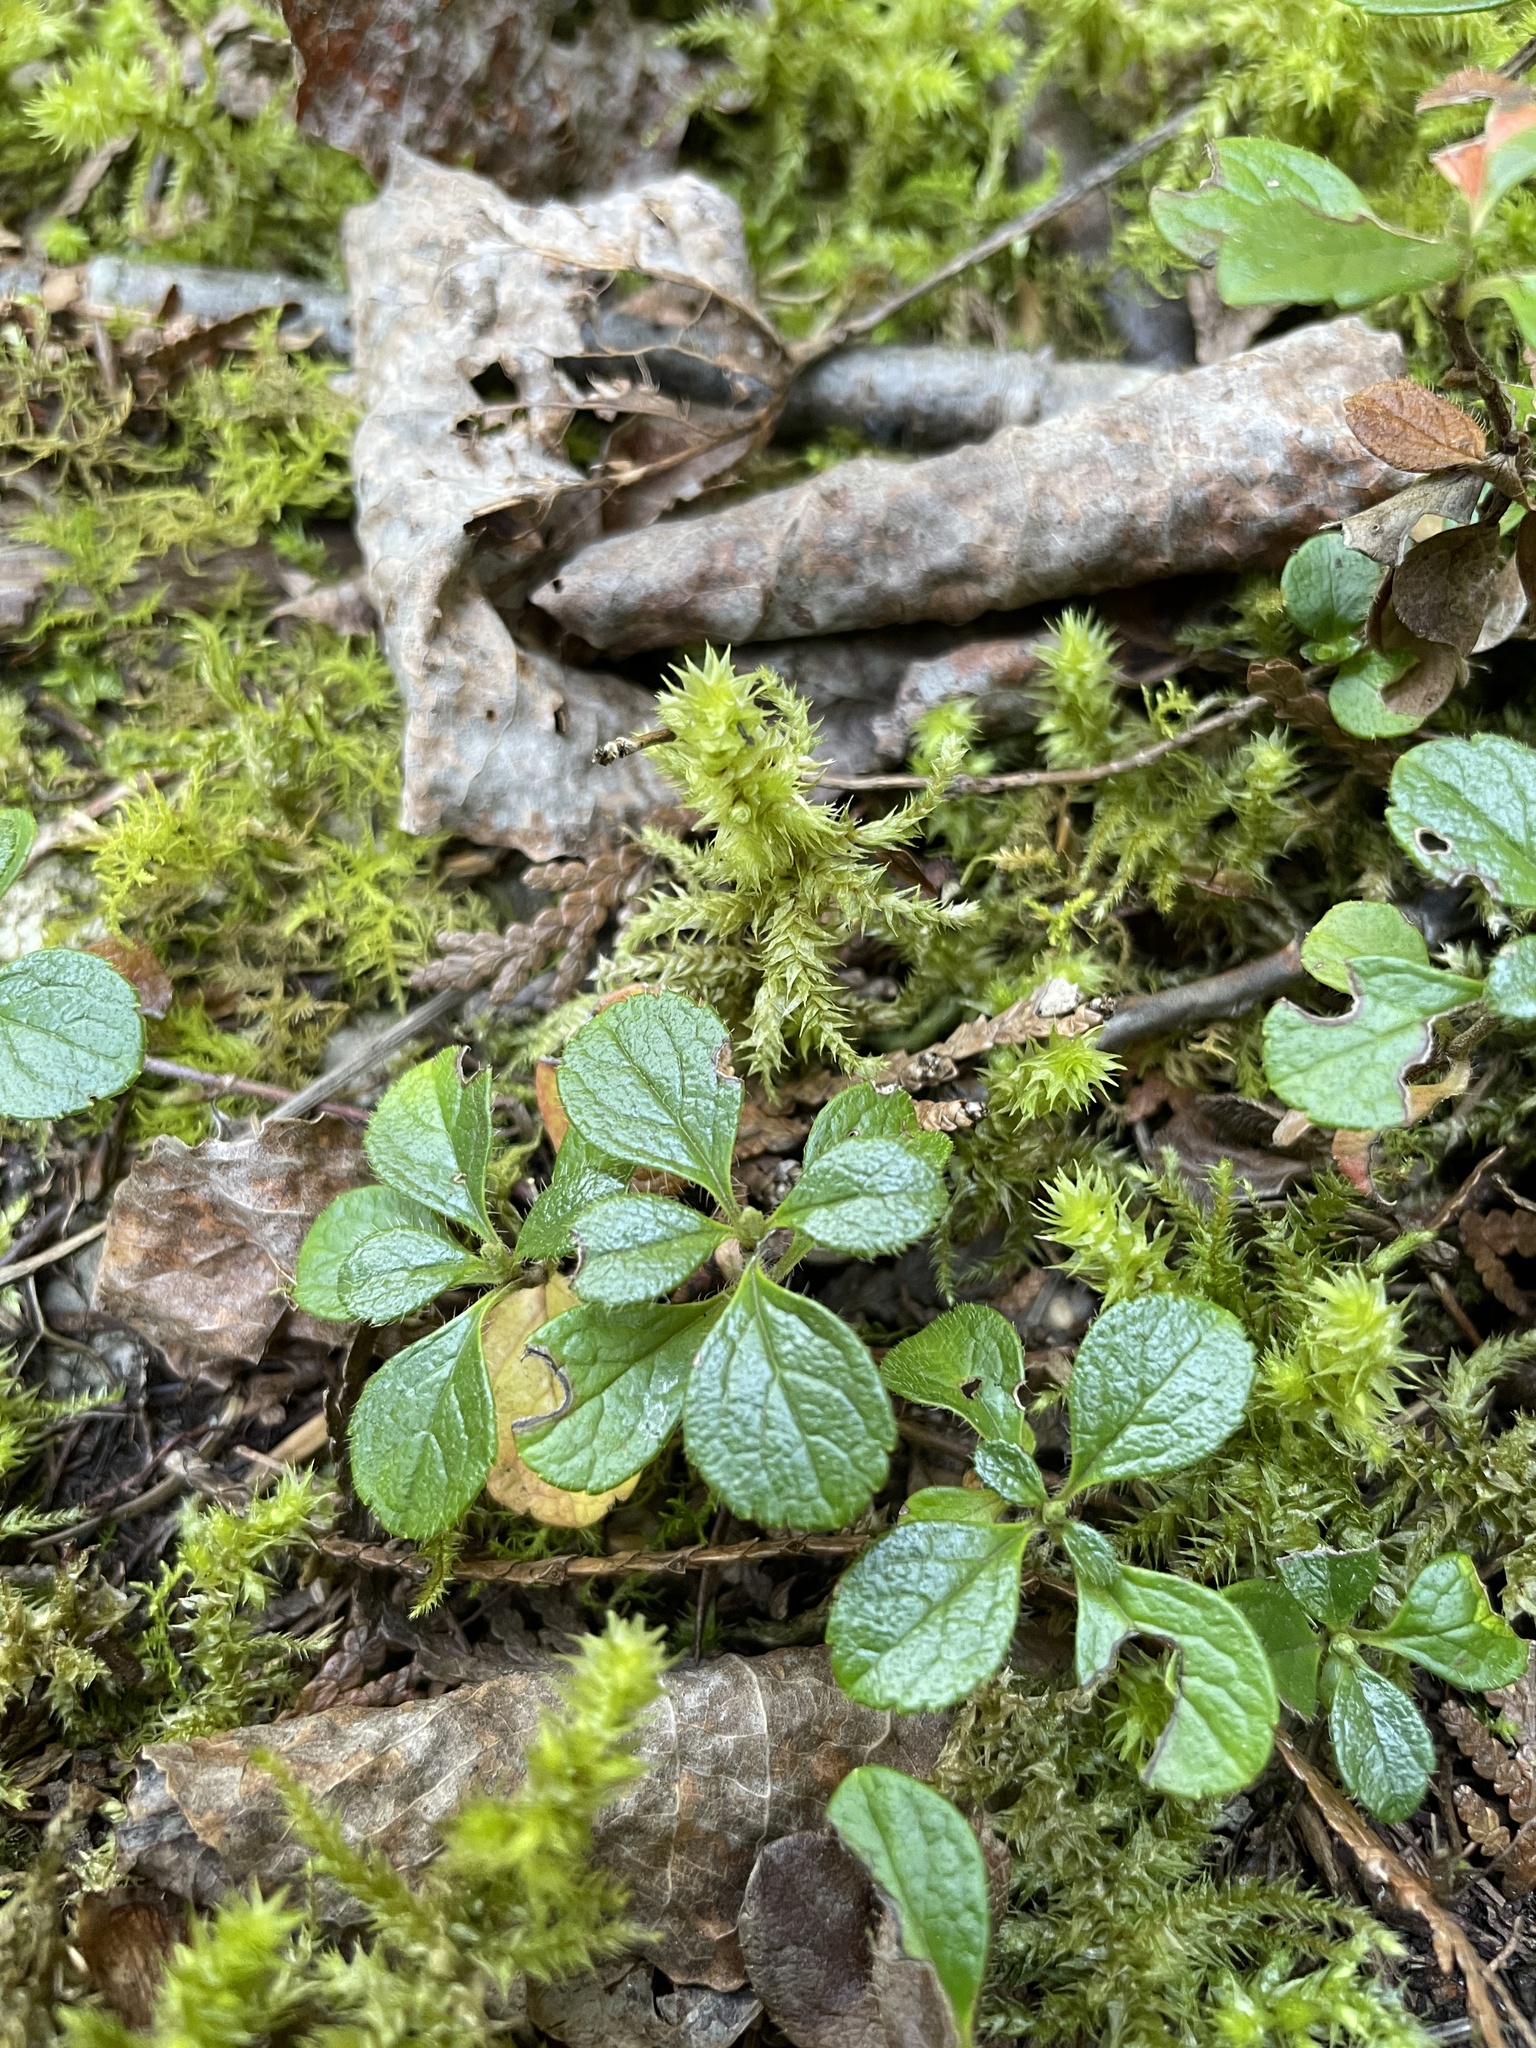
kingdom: Plantae
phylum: Tracheophyta
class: Magnoliopsida
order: Dipsacales
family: Caprifoliaceae
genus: Linnaea
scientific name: Linnaea borealis
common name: Twinflower
